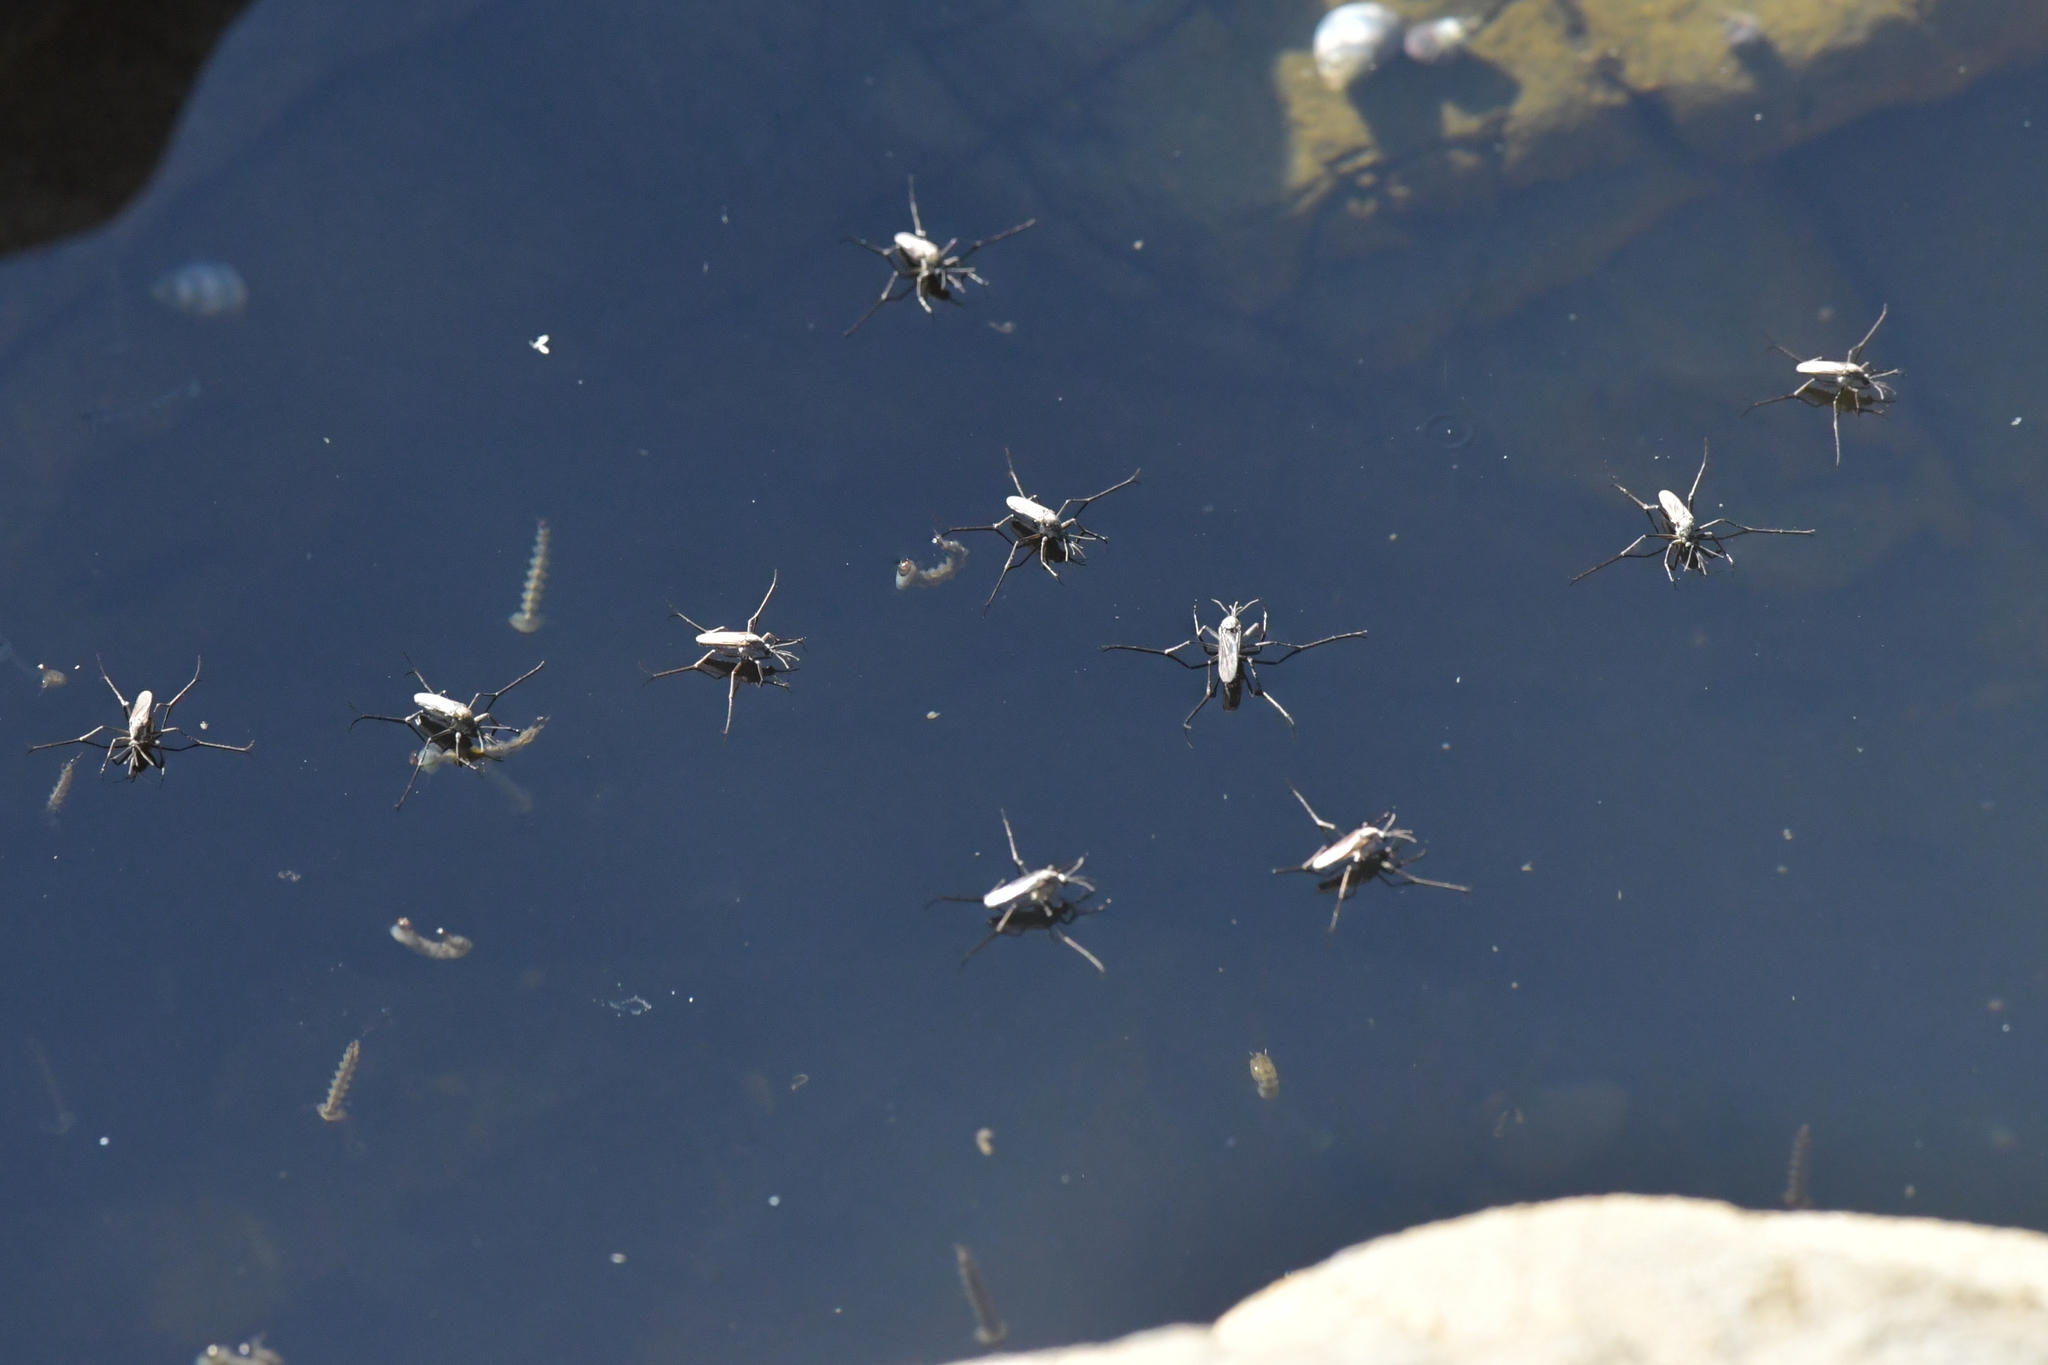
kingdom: Animalia
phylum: Arthropoda
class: Insecta
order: Diptera
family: Culicidae
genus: Opifex
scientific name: Opifex fuscus
